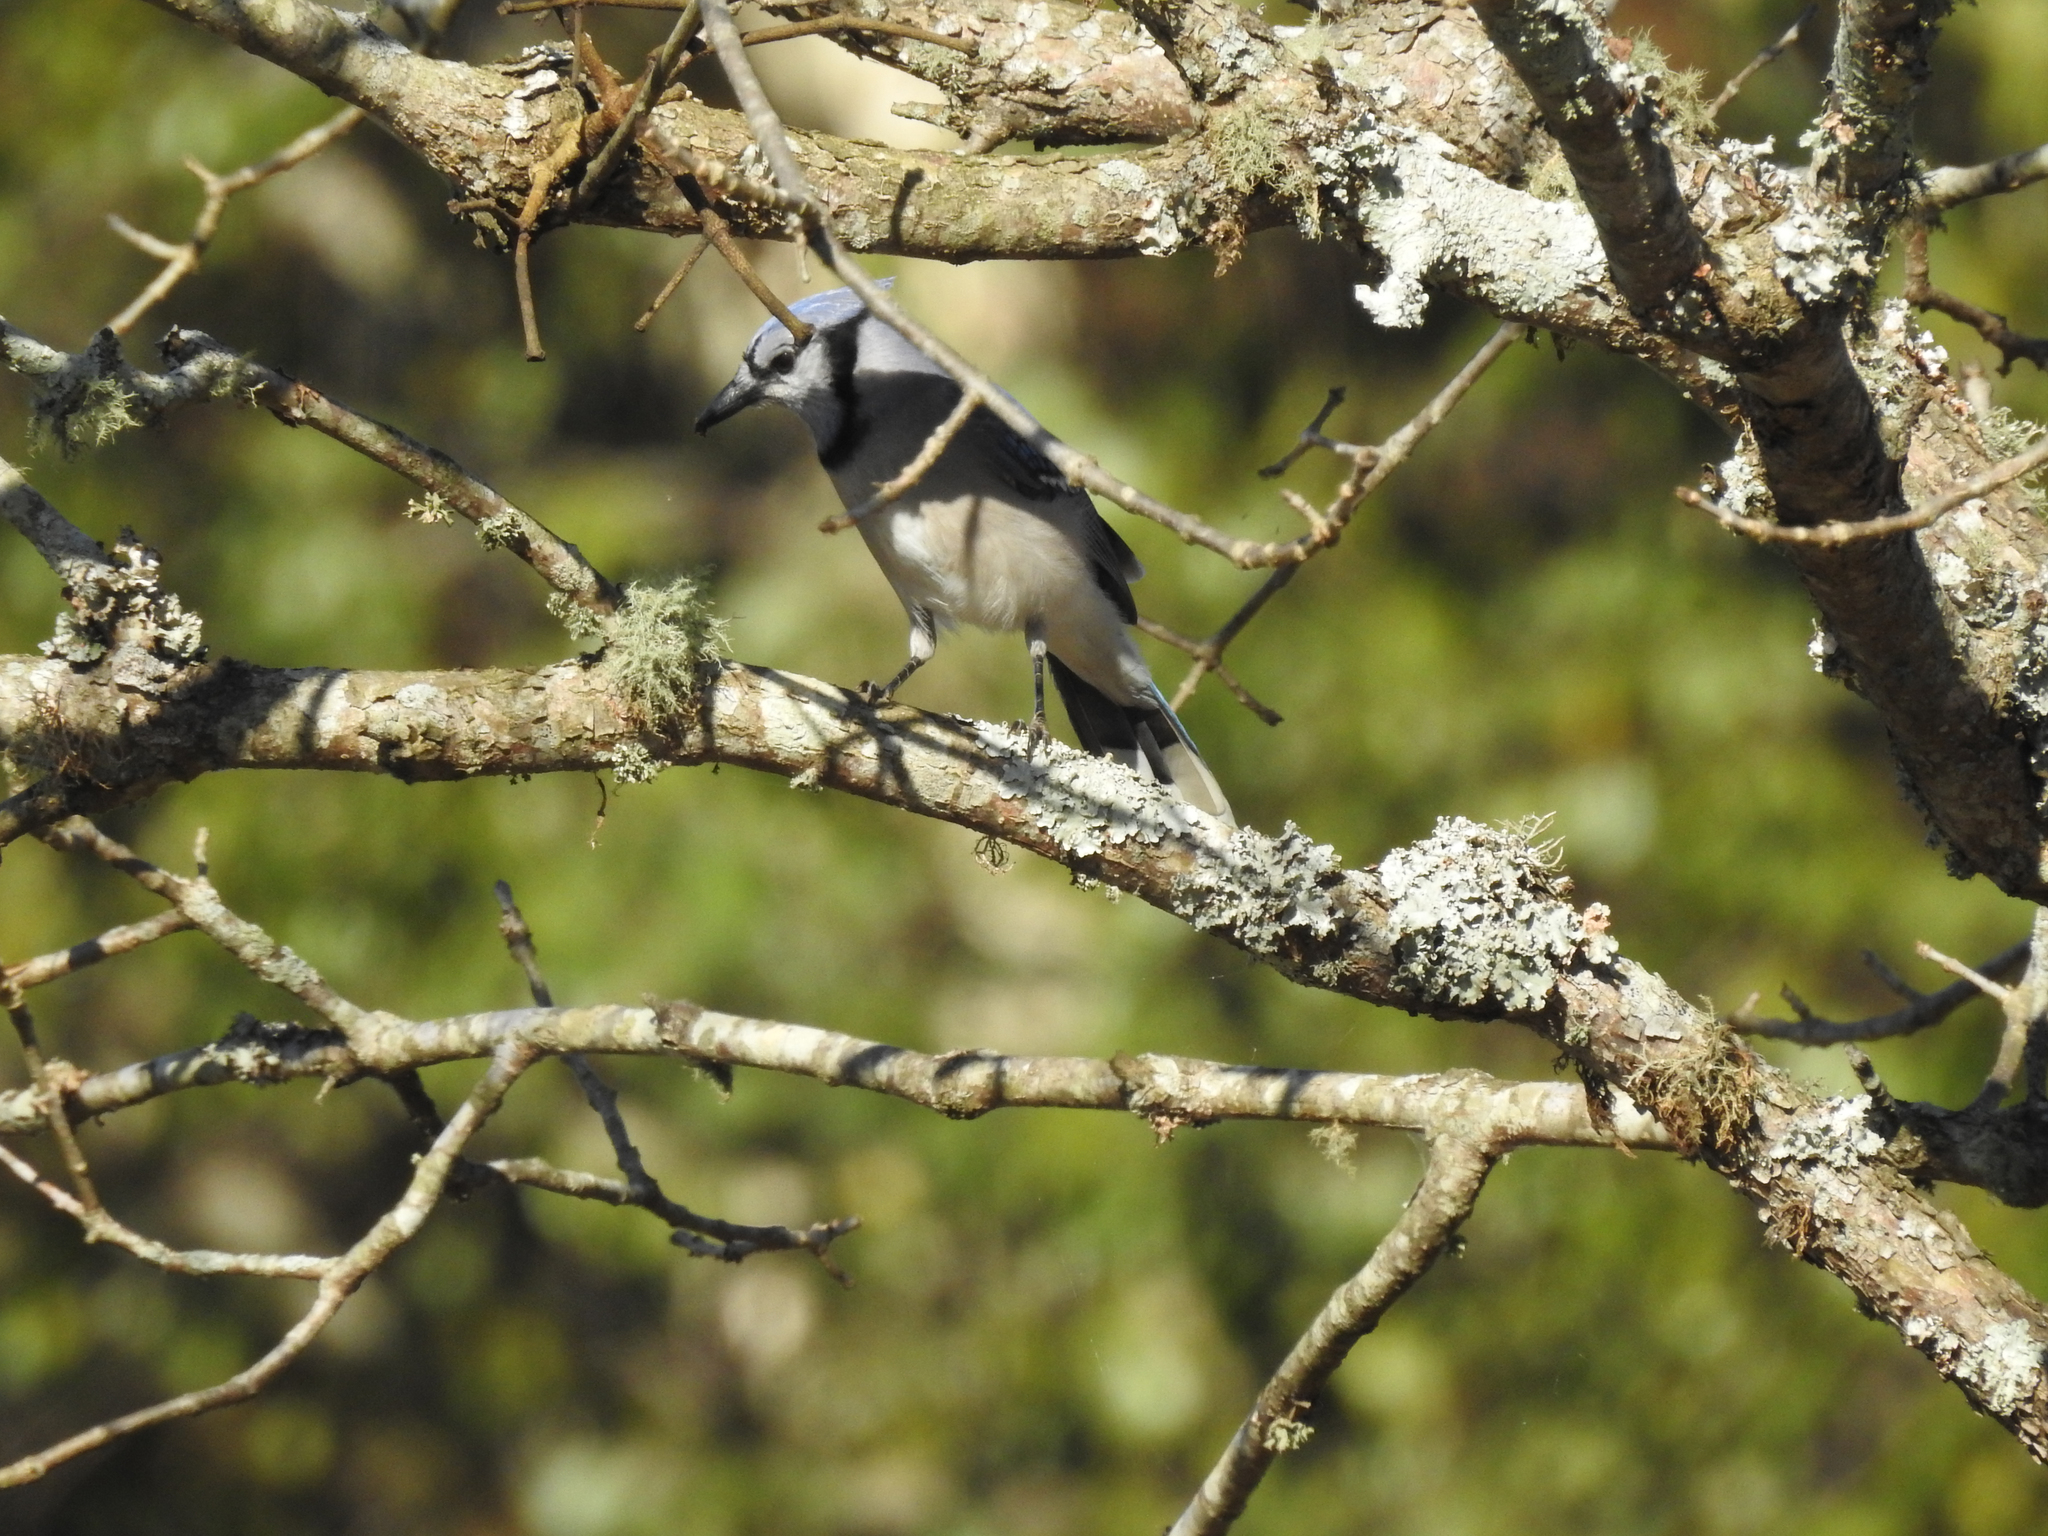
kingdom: Animalia
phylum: Chordata
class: Aves
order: Passeriformes
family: Corvidae
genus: Cyanocitta
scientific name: Cyanocitta cristata
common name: Blue jay
